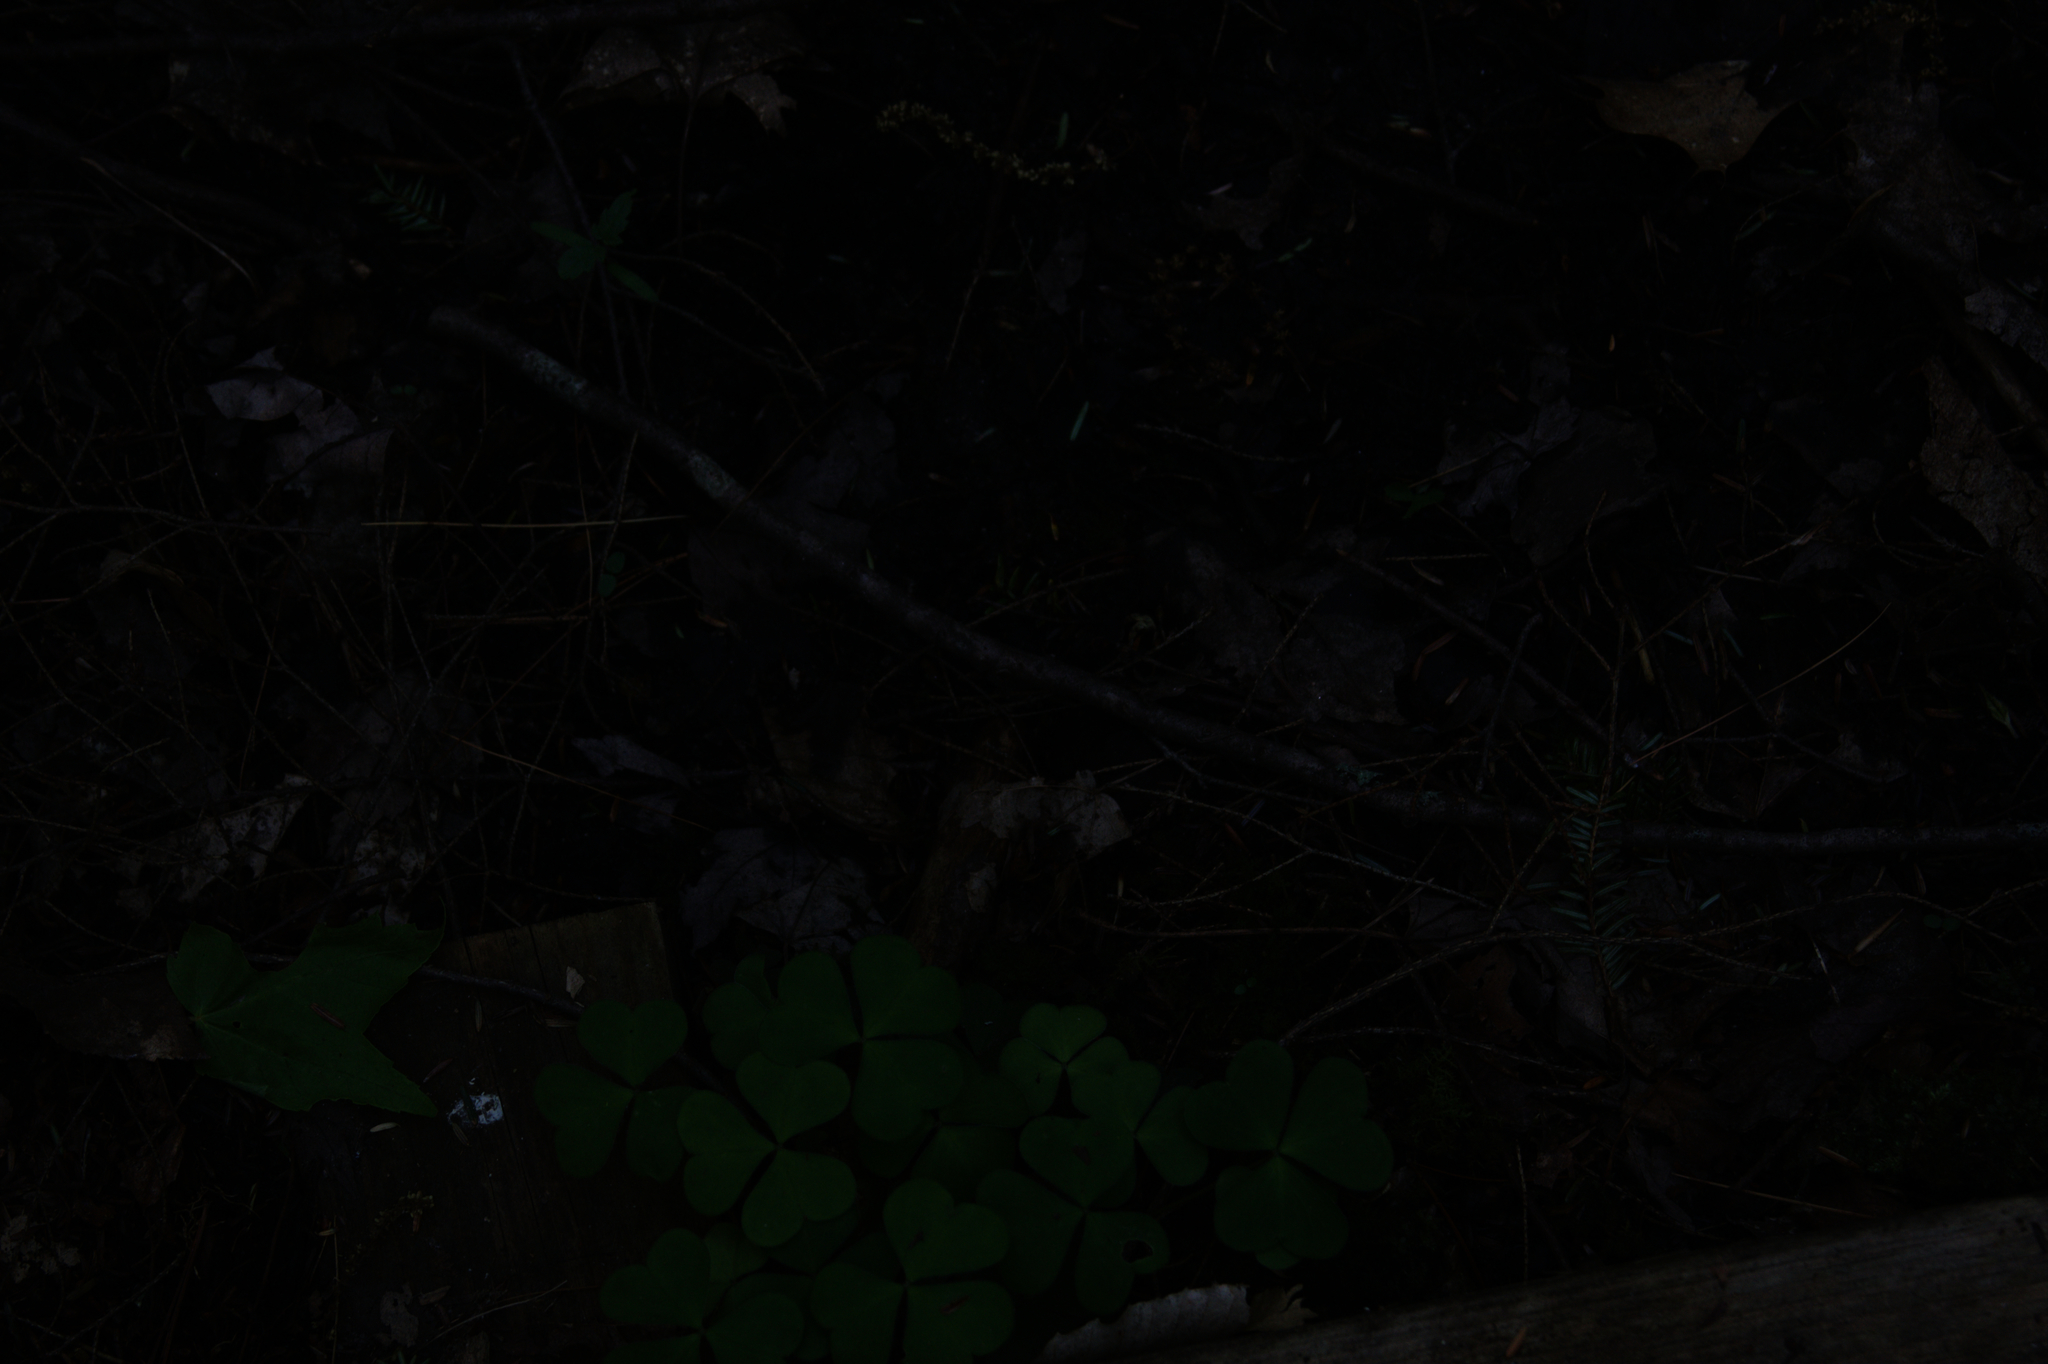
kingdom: Plantae
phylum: Tracheophyta
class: Magnoliopsida
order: Oxalidales
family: Oxalidaceae
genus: Oxalis
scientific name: Oxalis montana
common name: American wood-sorrel
